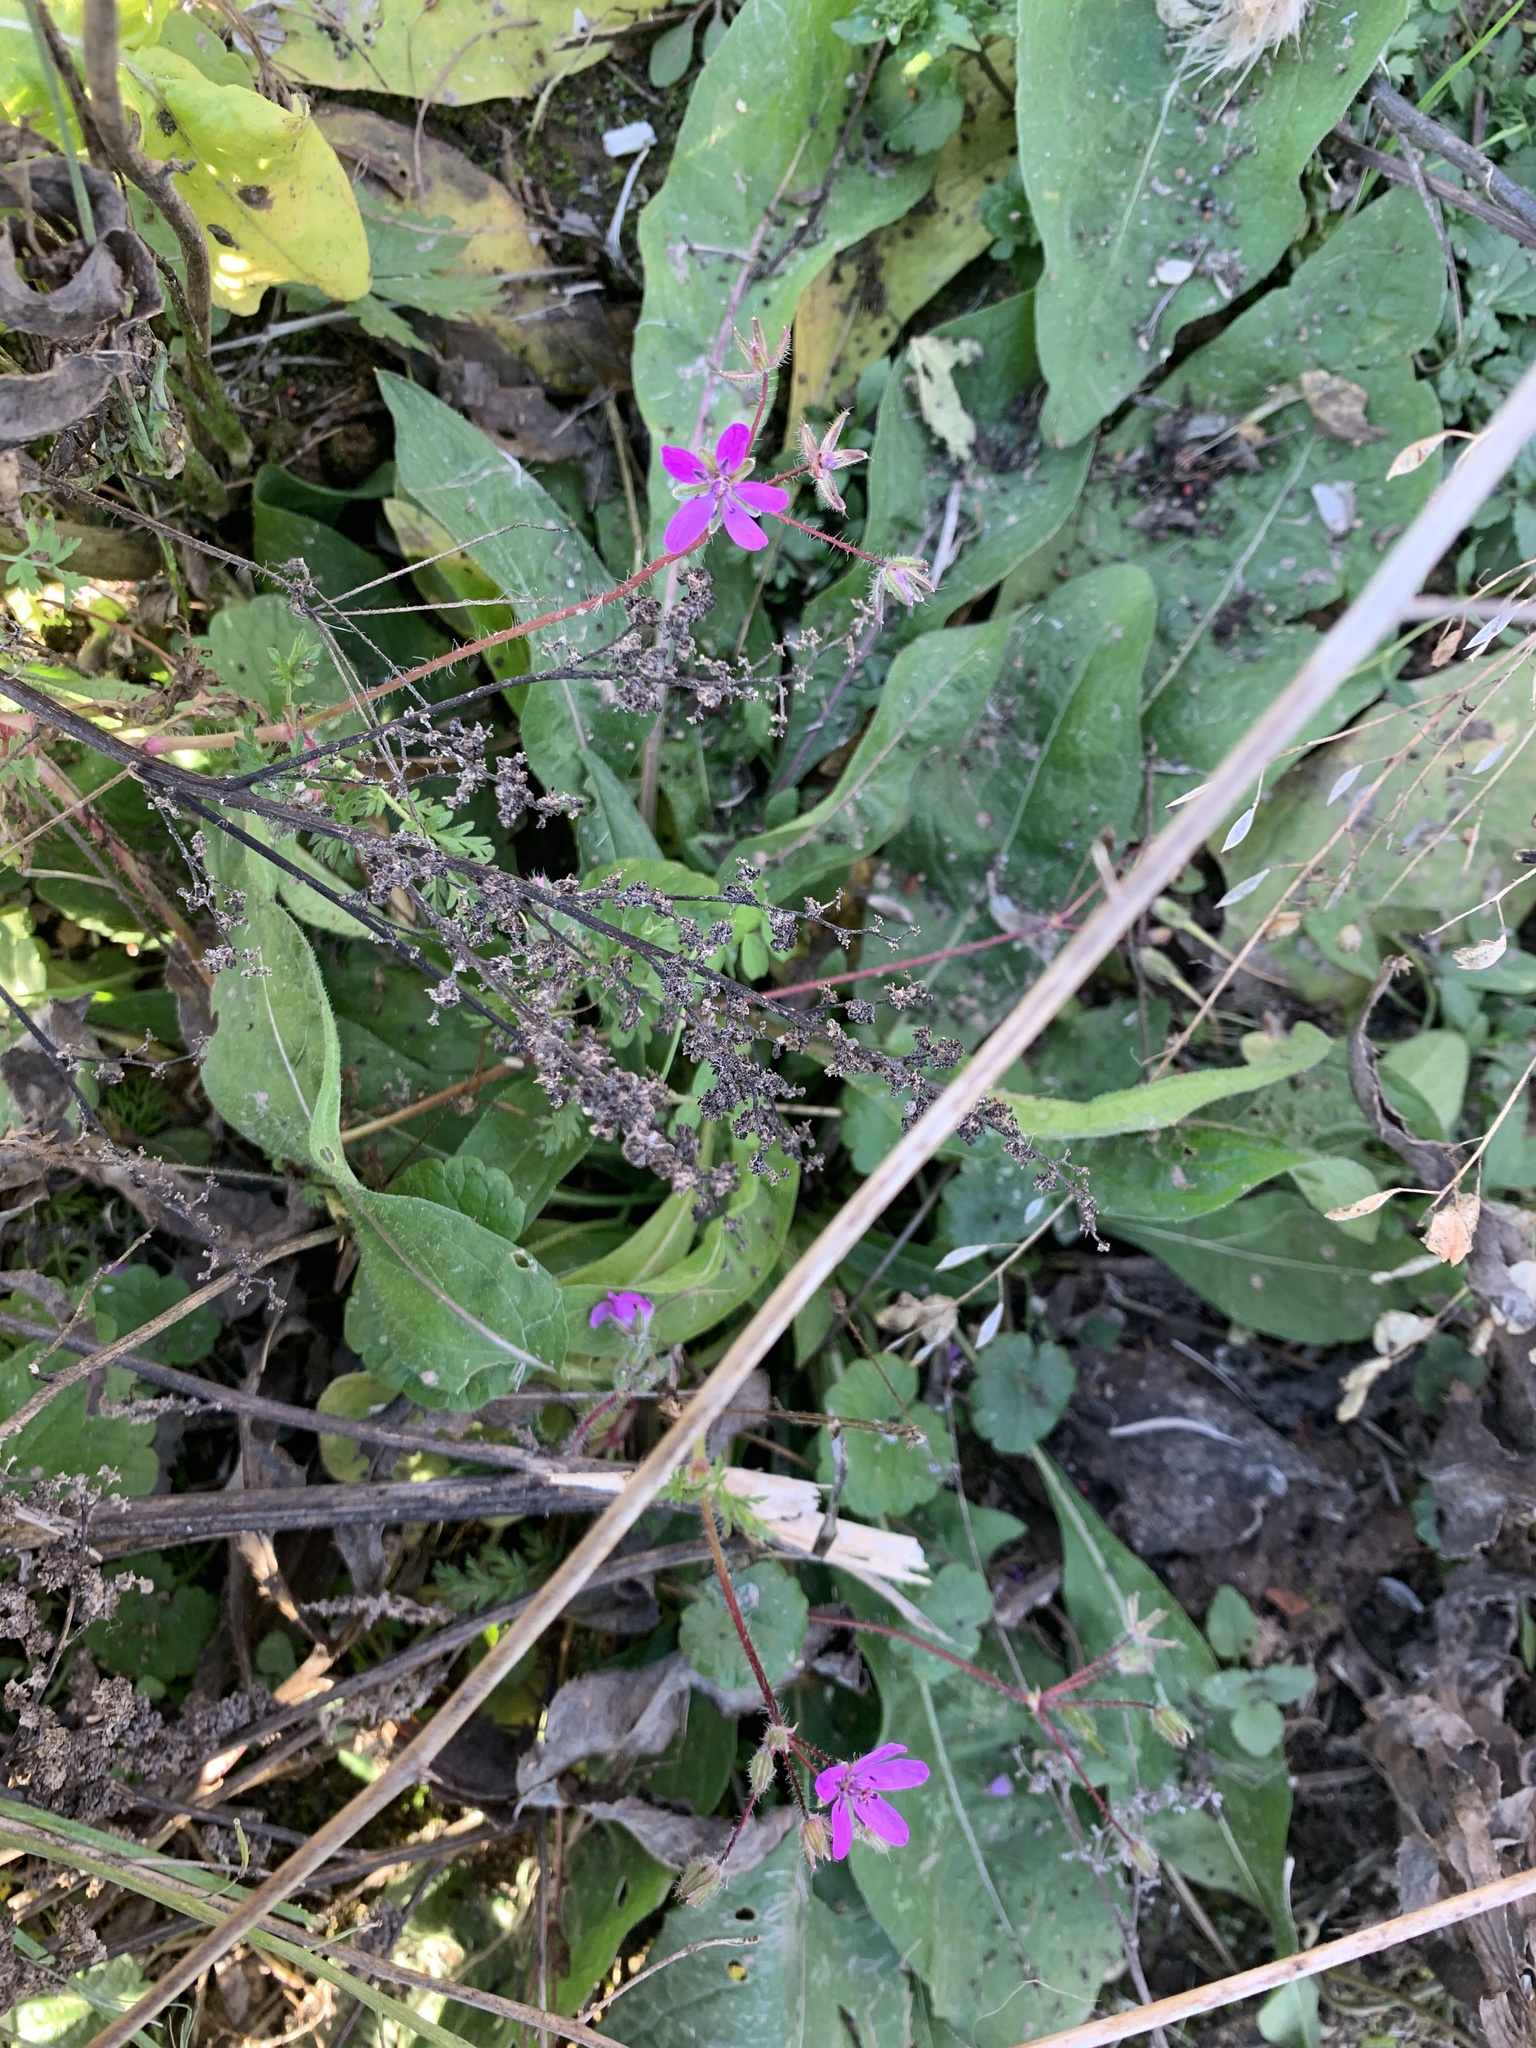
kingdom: Plantae
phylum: Tracheophyta
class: Magnoliopsida
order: Geraniales
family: Geraniaceae
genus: Erodium
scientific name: Erodium cicutarium
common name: Common stork's-bill
